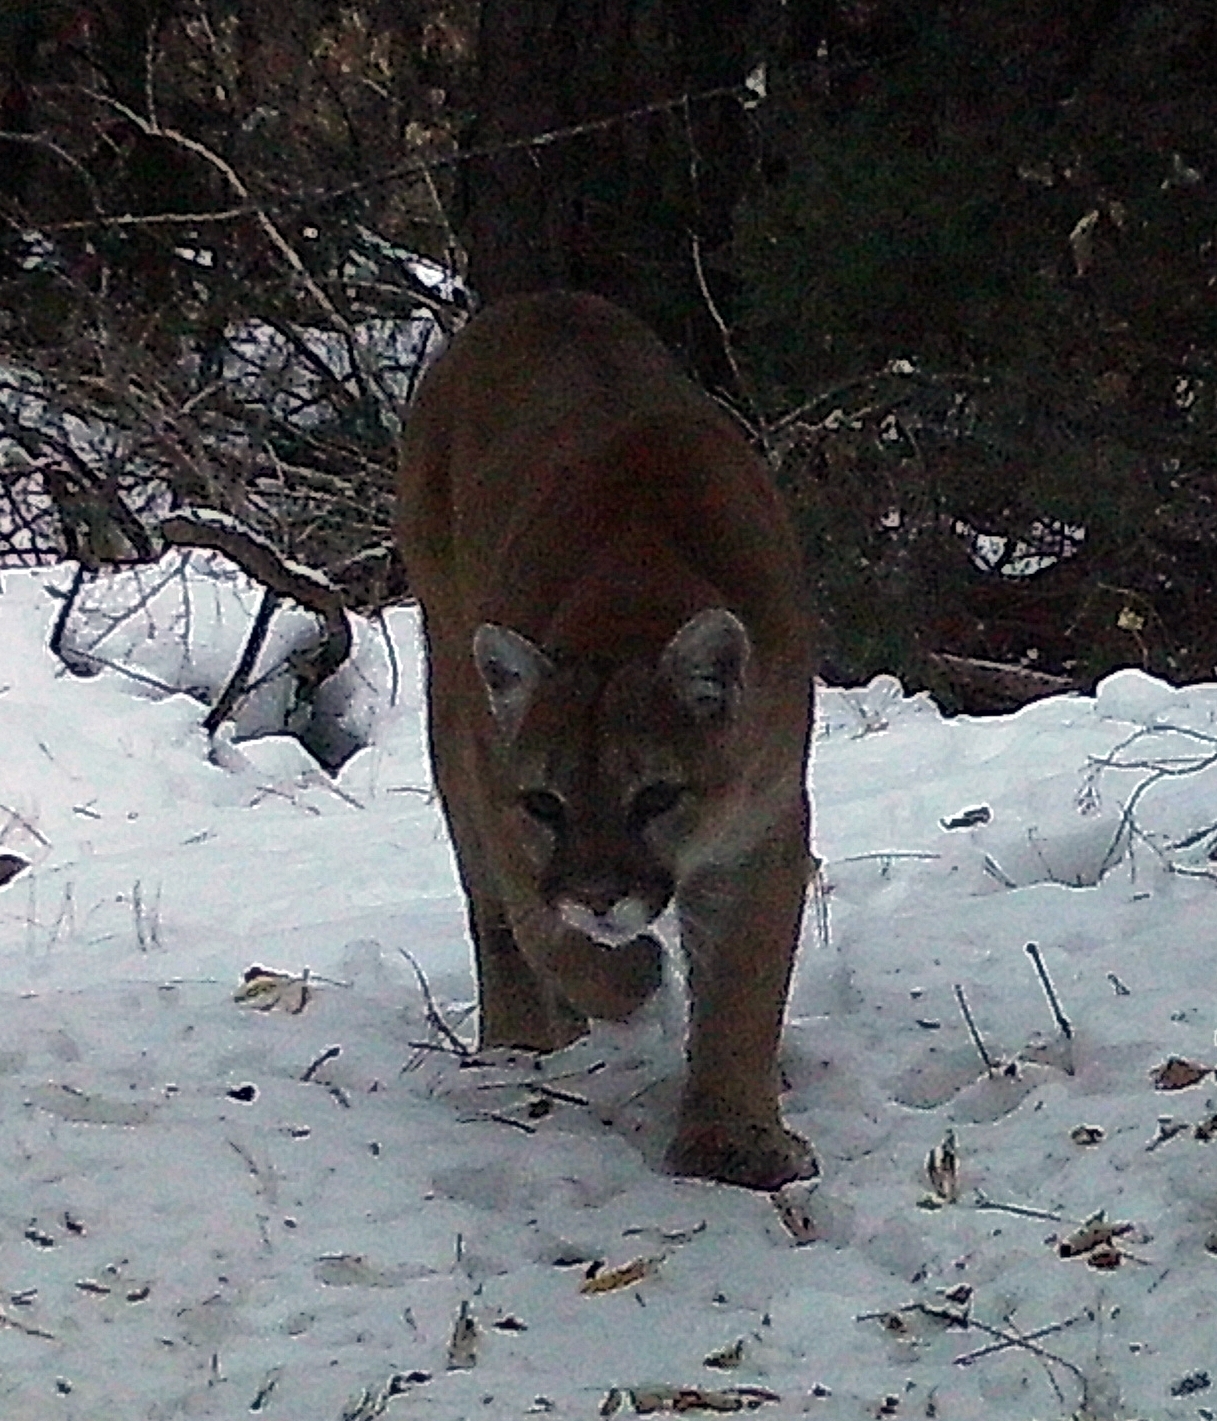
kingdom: Animalia
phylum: Chordata
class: Mammalia
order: Carnivora
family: Felidae
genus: Puma
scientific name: Puma concolor
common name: Puma
